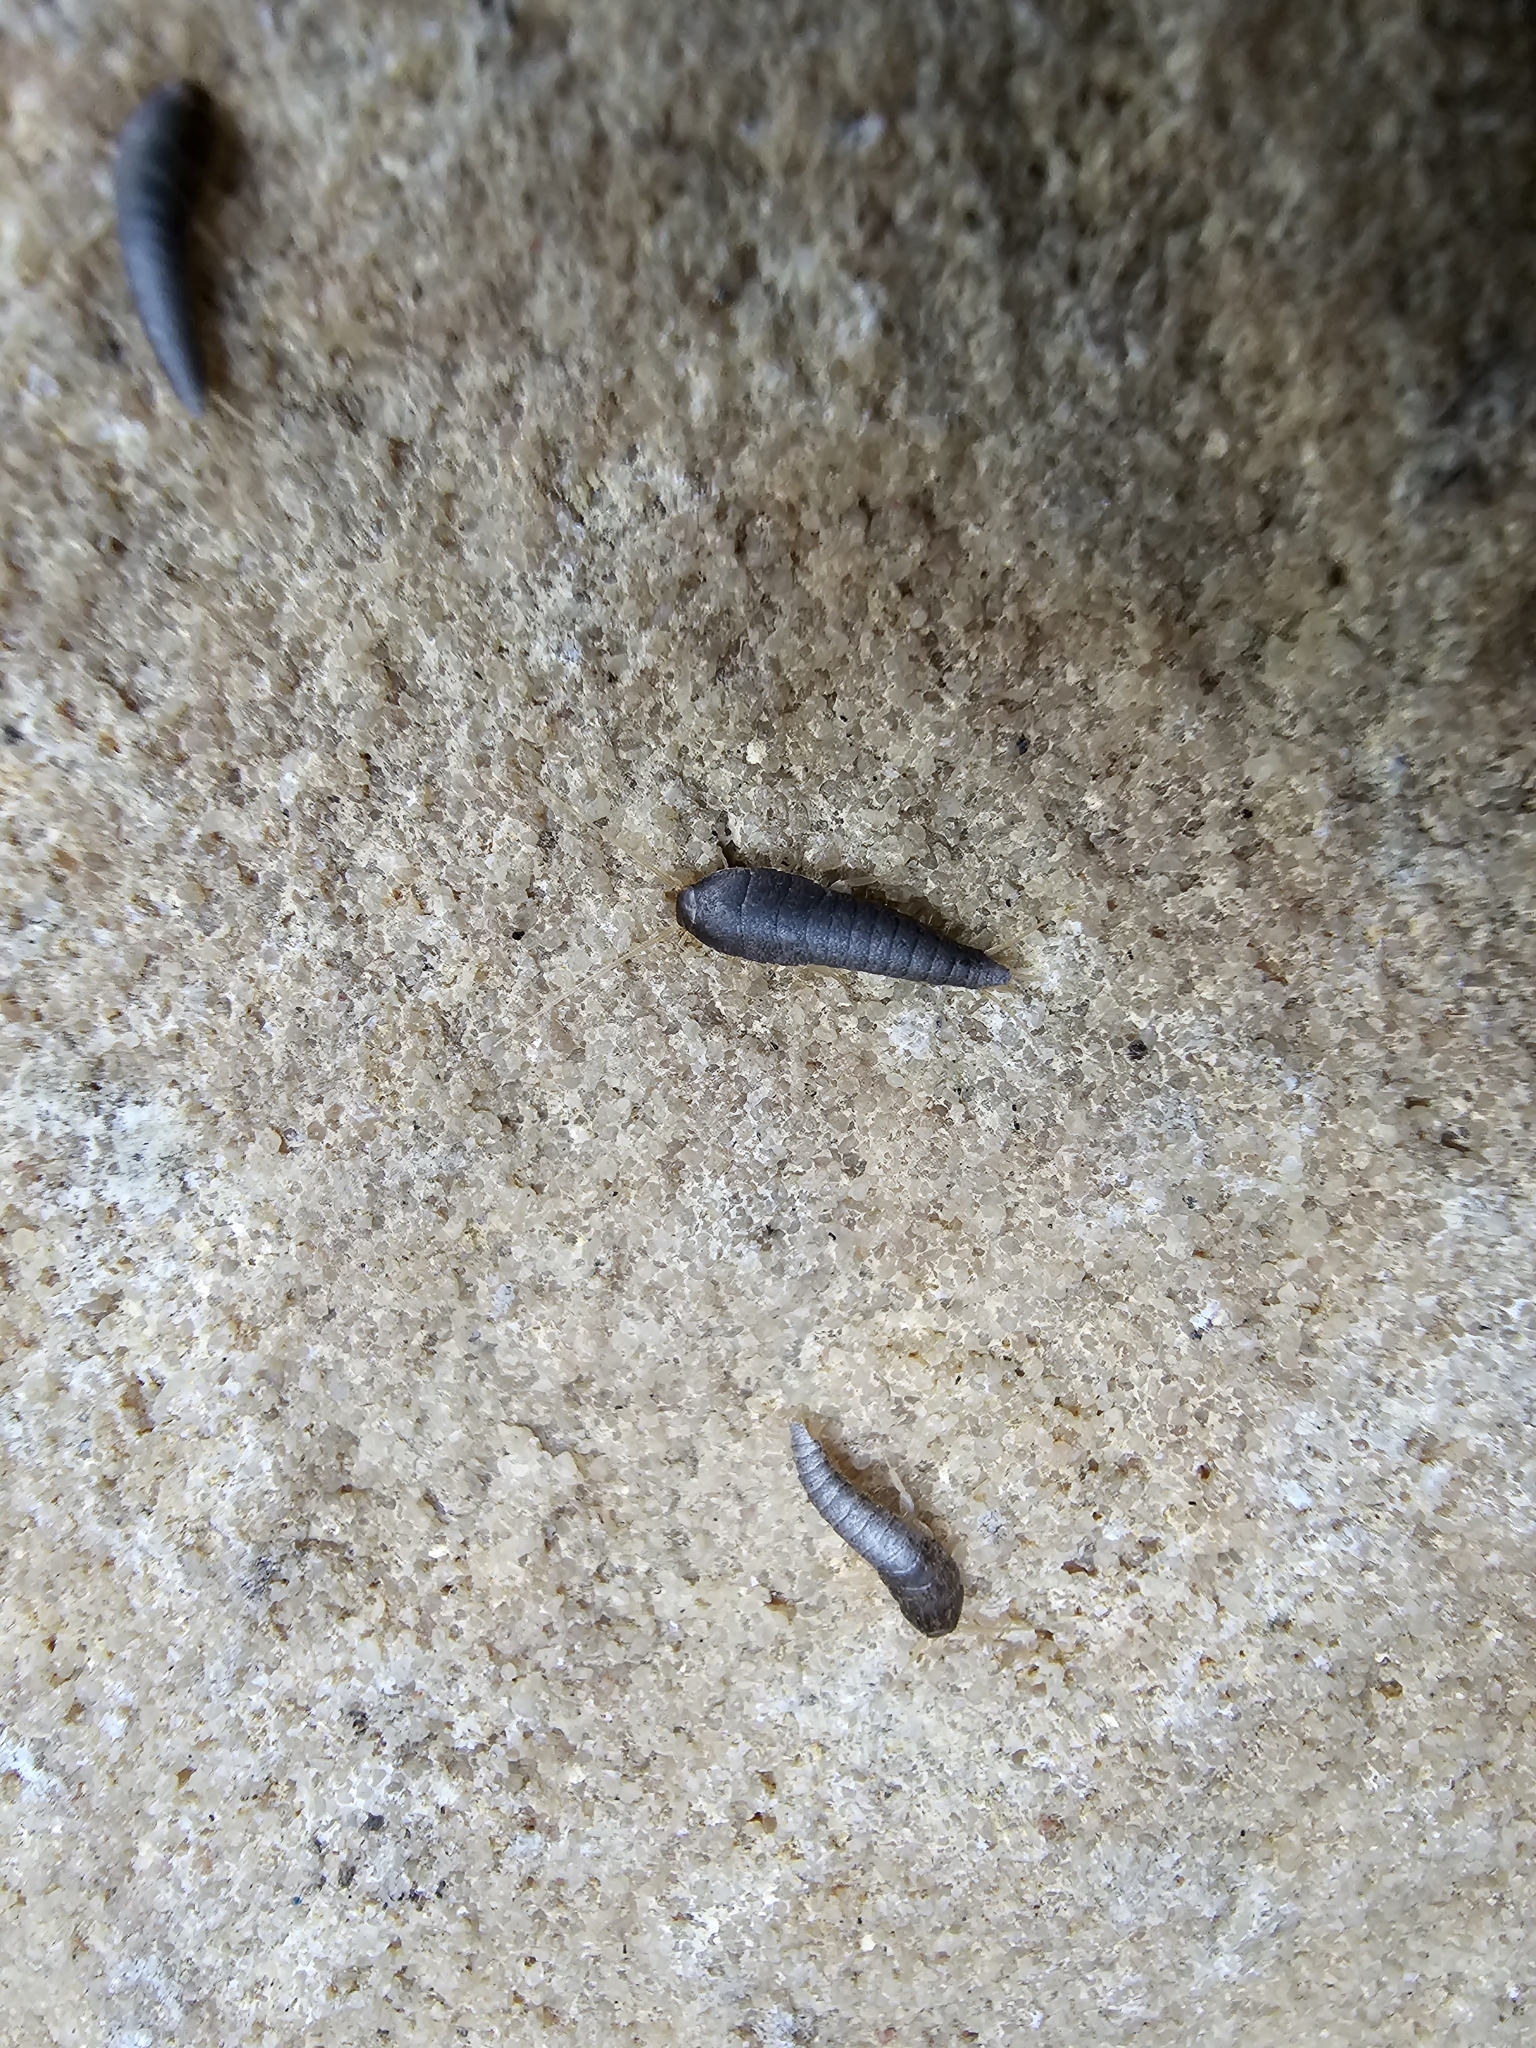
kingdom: Animalia
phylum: Arthropoda
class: Insecta
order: Zygentoma
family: Lepismatidae
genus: Lepisma
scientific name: Lepisma saccharinum
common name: Silverfish
